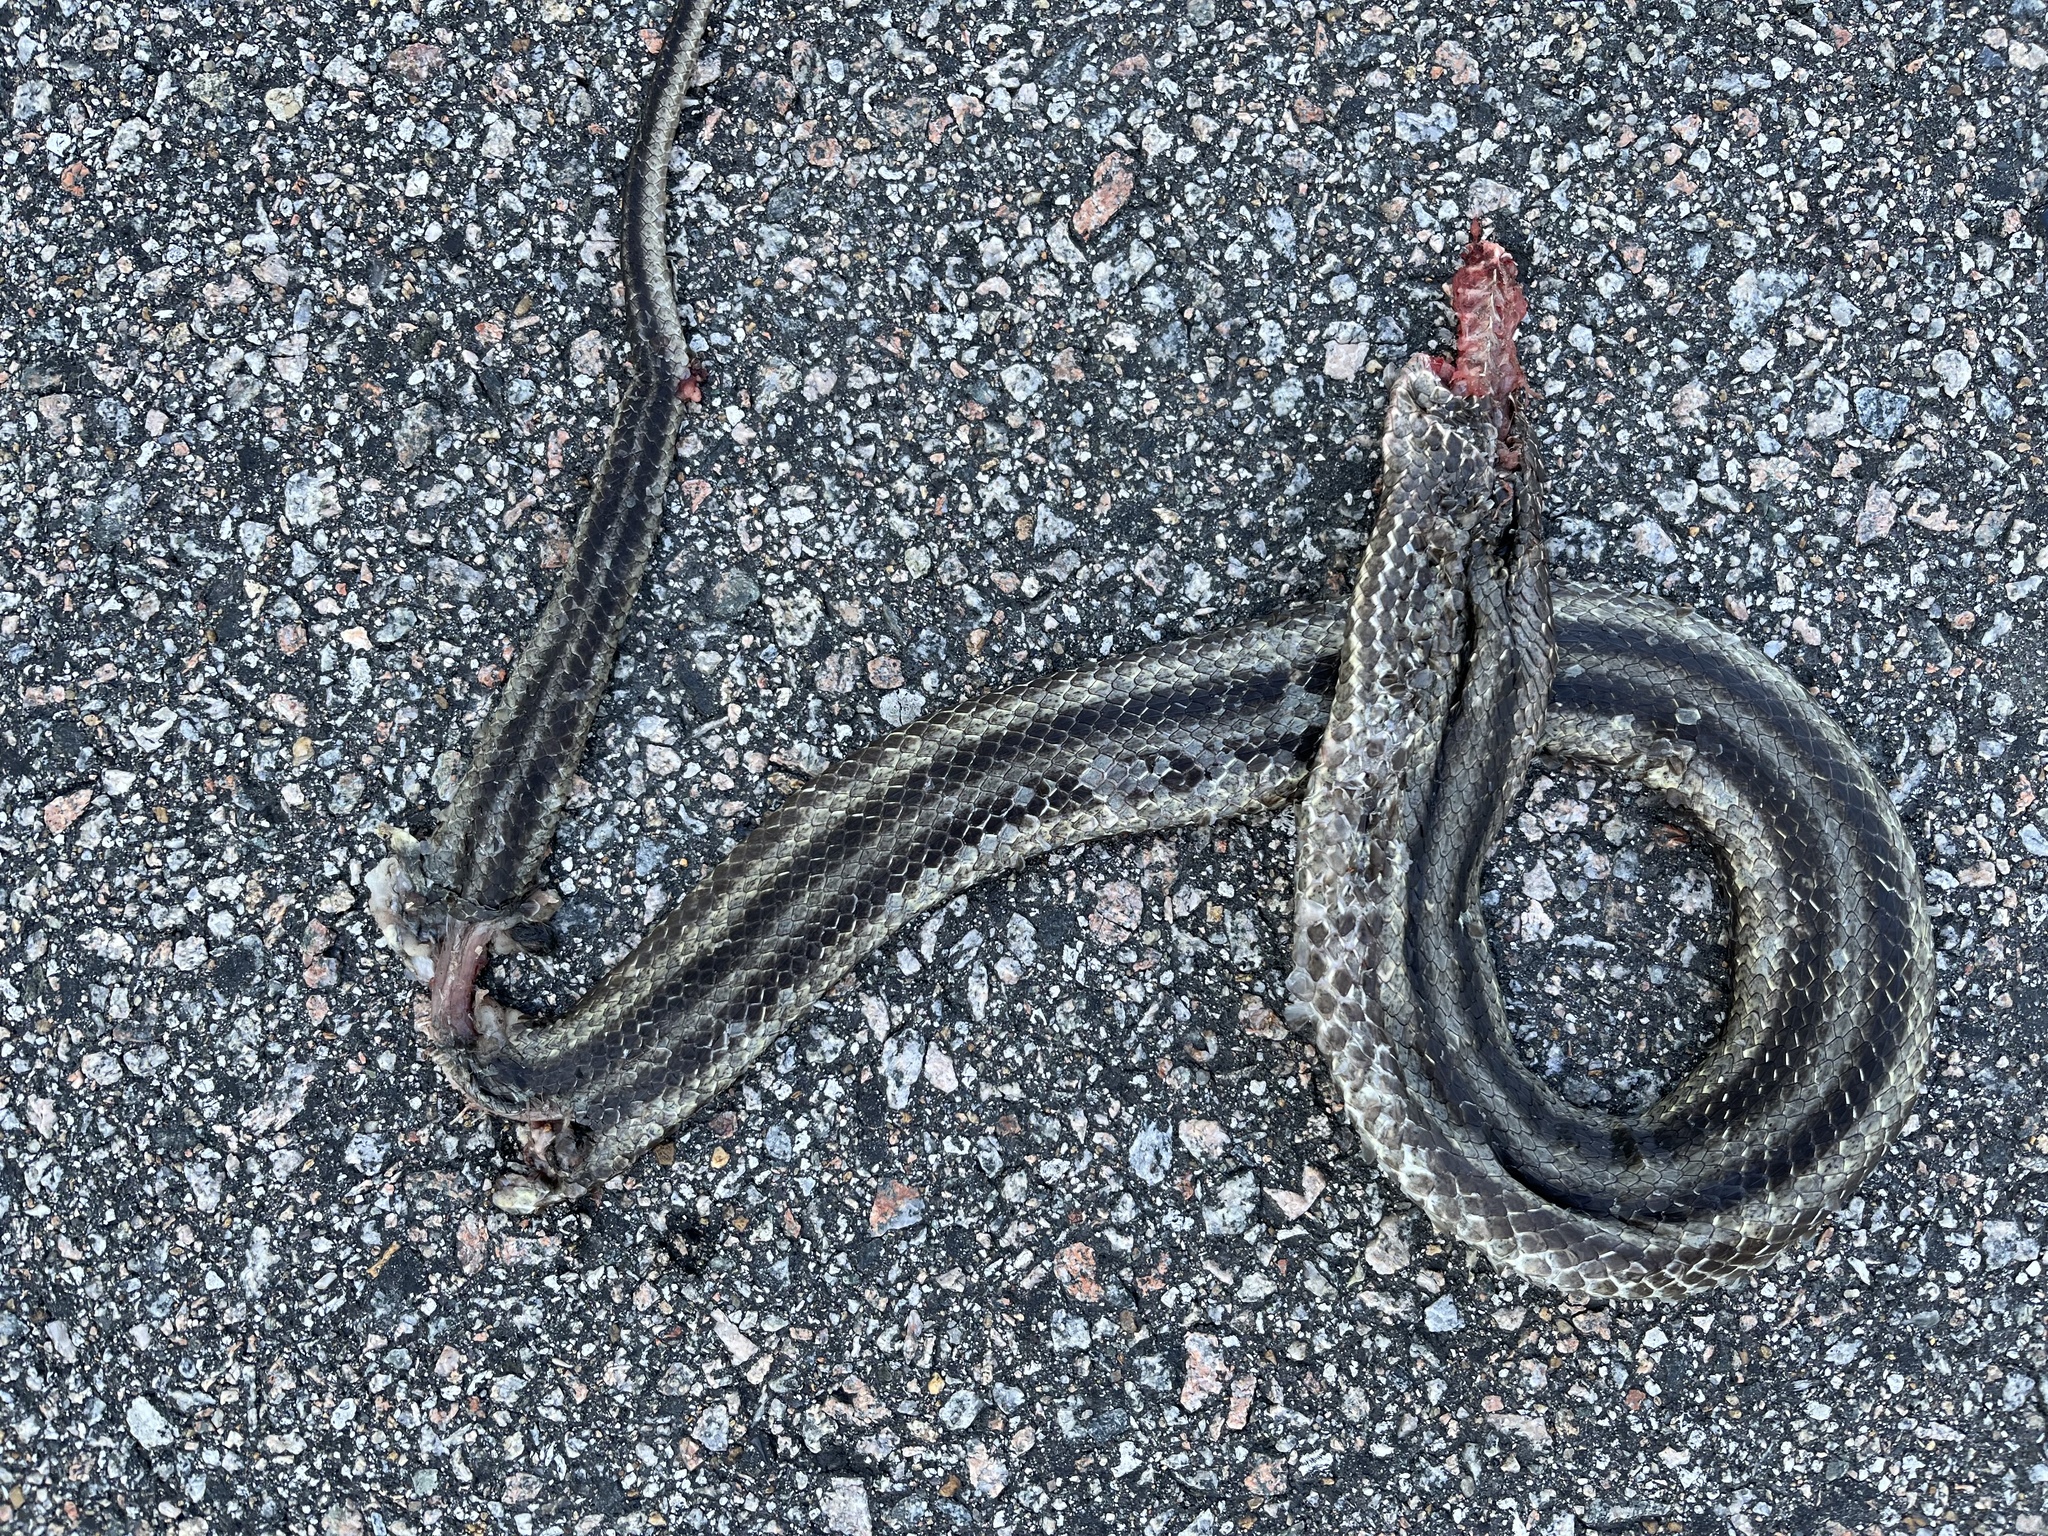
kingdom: Animalia
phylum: Chordata
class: Squamata
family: Colubridae
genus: Pantherophis
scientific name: Pantherophis alleghaniensis
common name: Eastern rat snake
